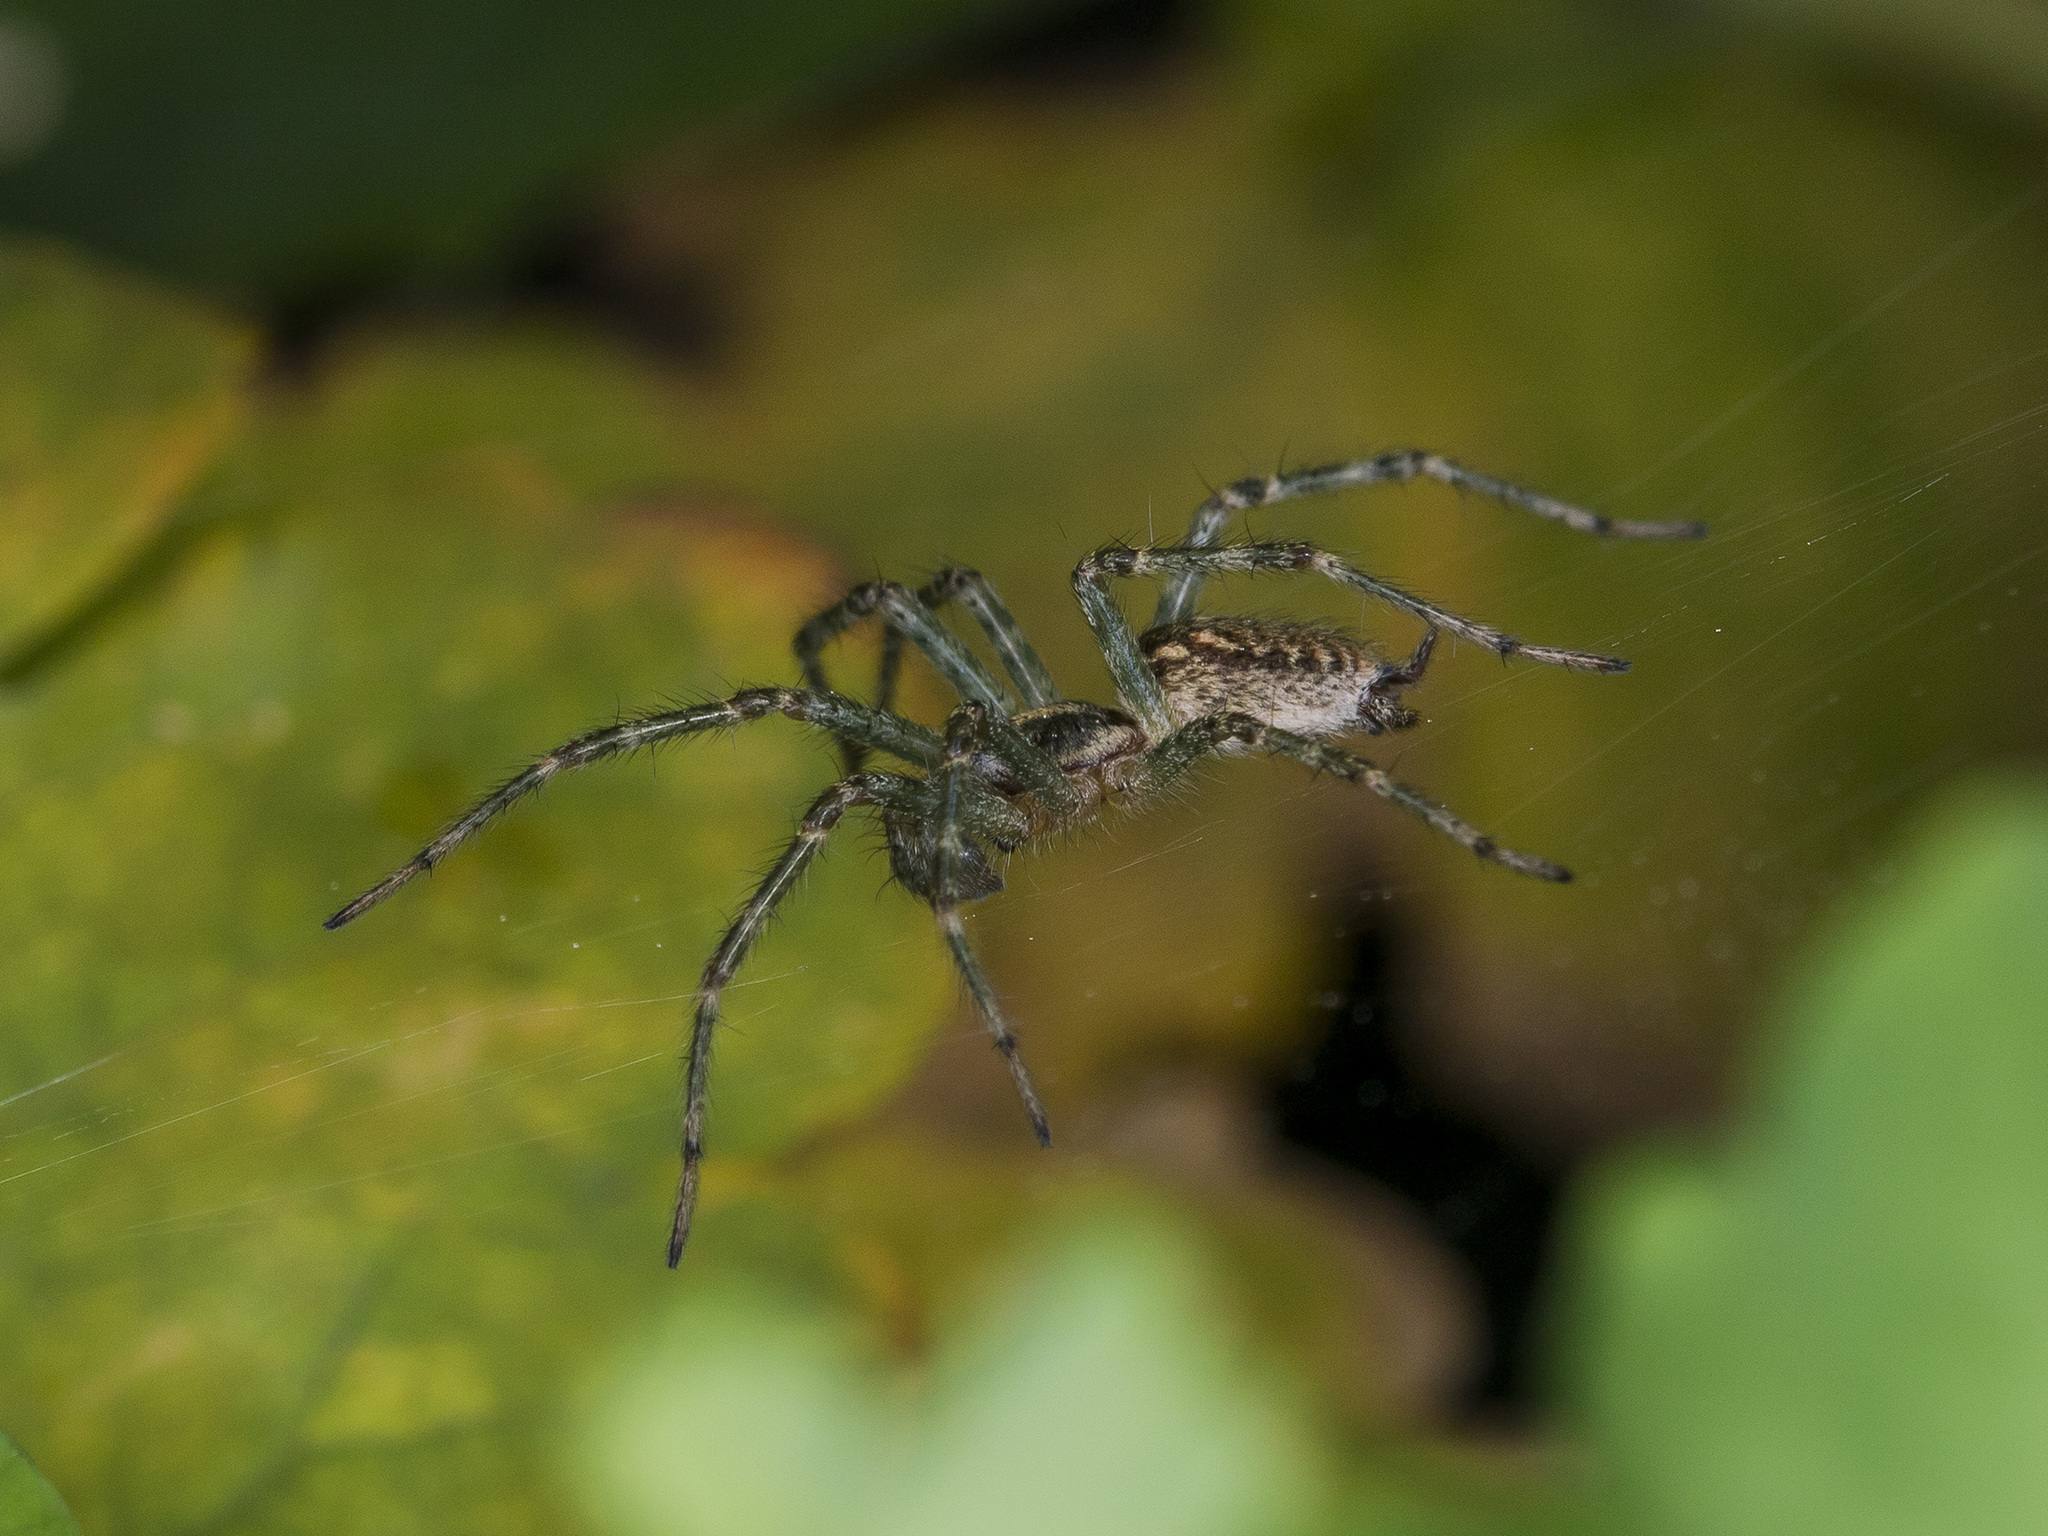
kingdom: Animalia
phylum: Arthropoda
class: Arachnida
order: Araneae
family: Agelenidae
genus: Allagelena
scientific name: Allagelena gracilens
